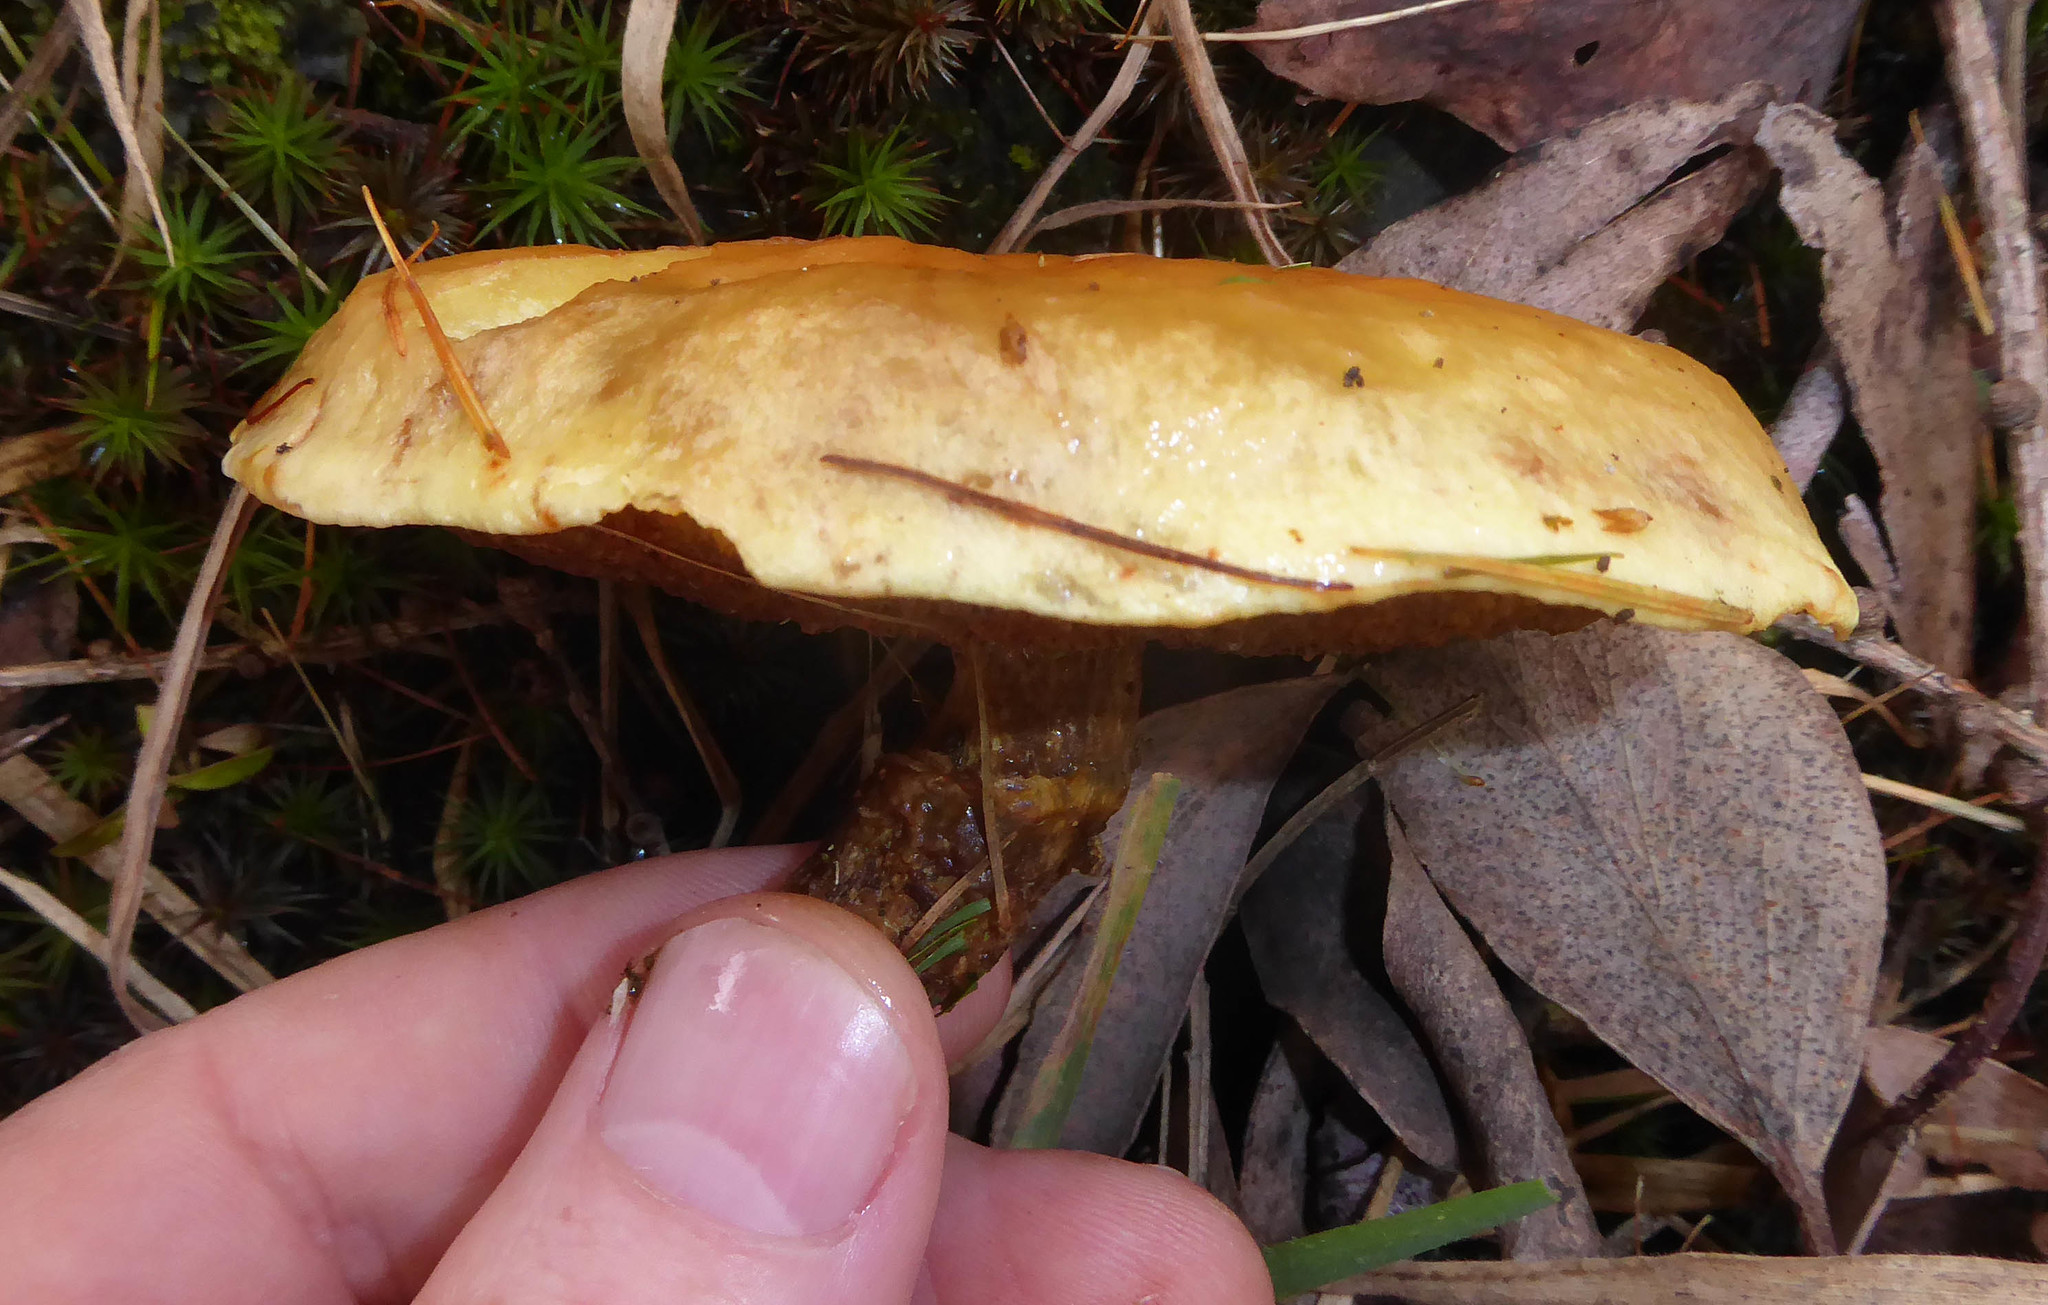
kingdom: Fungi
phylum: Basidiomycota
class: Agaricomycetes
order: Boletales
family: Suillaceae
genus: Suillus
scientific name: Suillus grevillei
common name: Larch bolete
